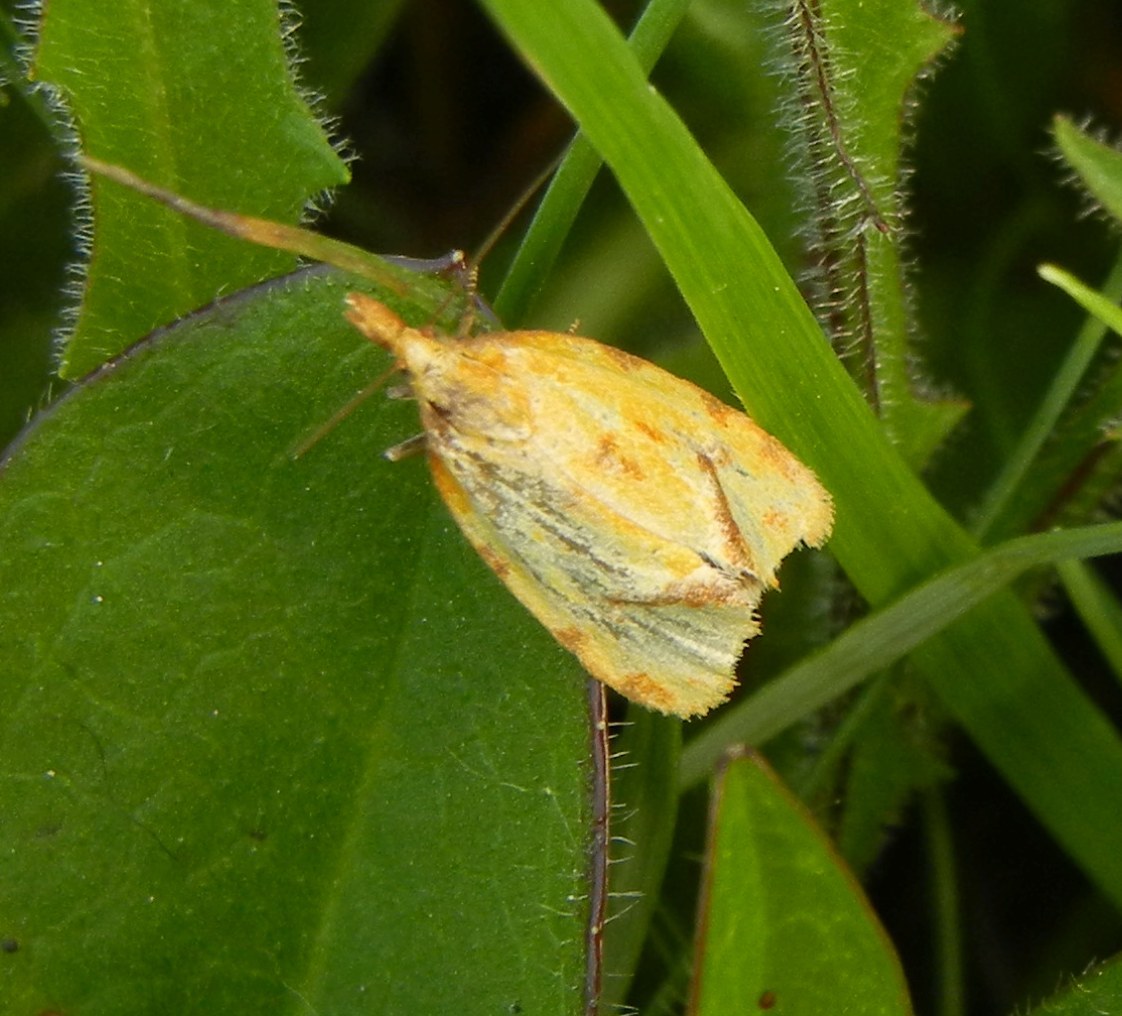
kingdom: Animalia
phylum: Arthropoda
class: Insecta
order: Lepidoptera
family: Tortricidae
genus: Agapeta
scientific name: Agapeta hamana
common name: Common yellow conch
